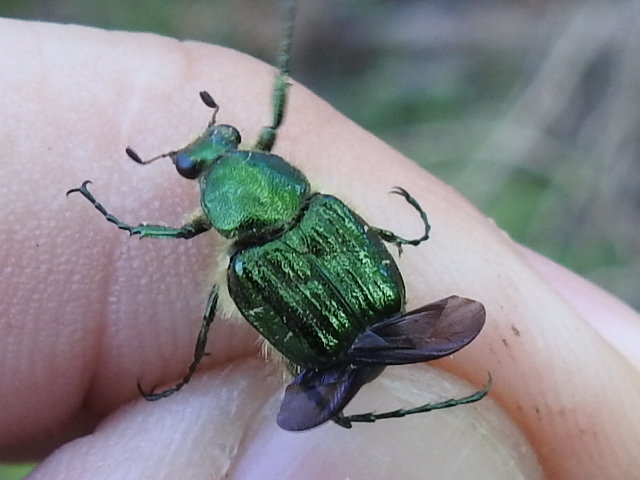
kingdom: Animalia
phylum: Arthropoda
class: Insecta
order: Coleoptera
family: Scarabaeidae
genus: Trichiotinus
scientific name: Trichiotinus lunulatus
